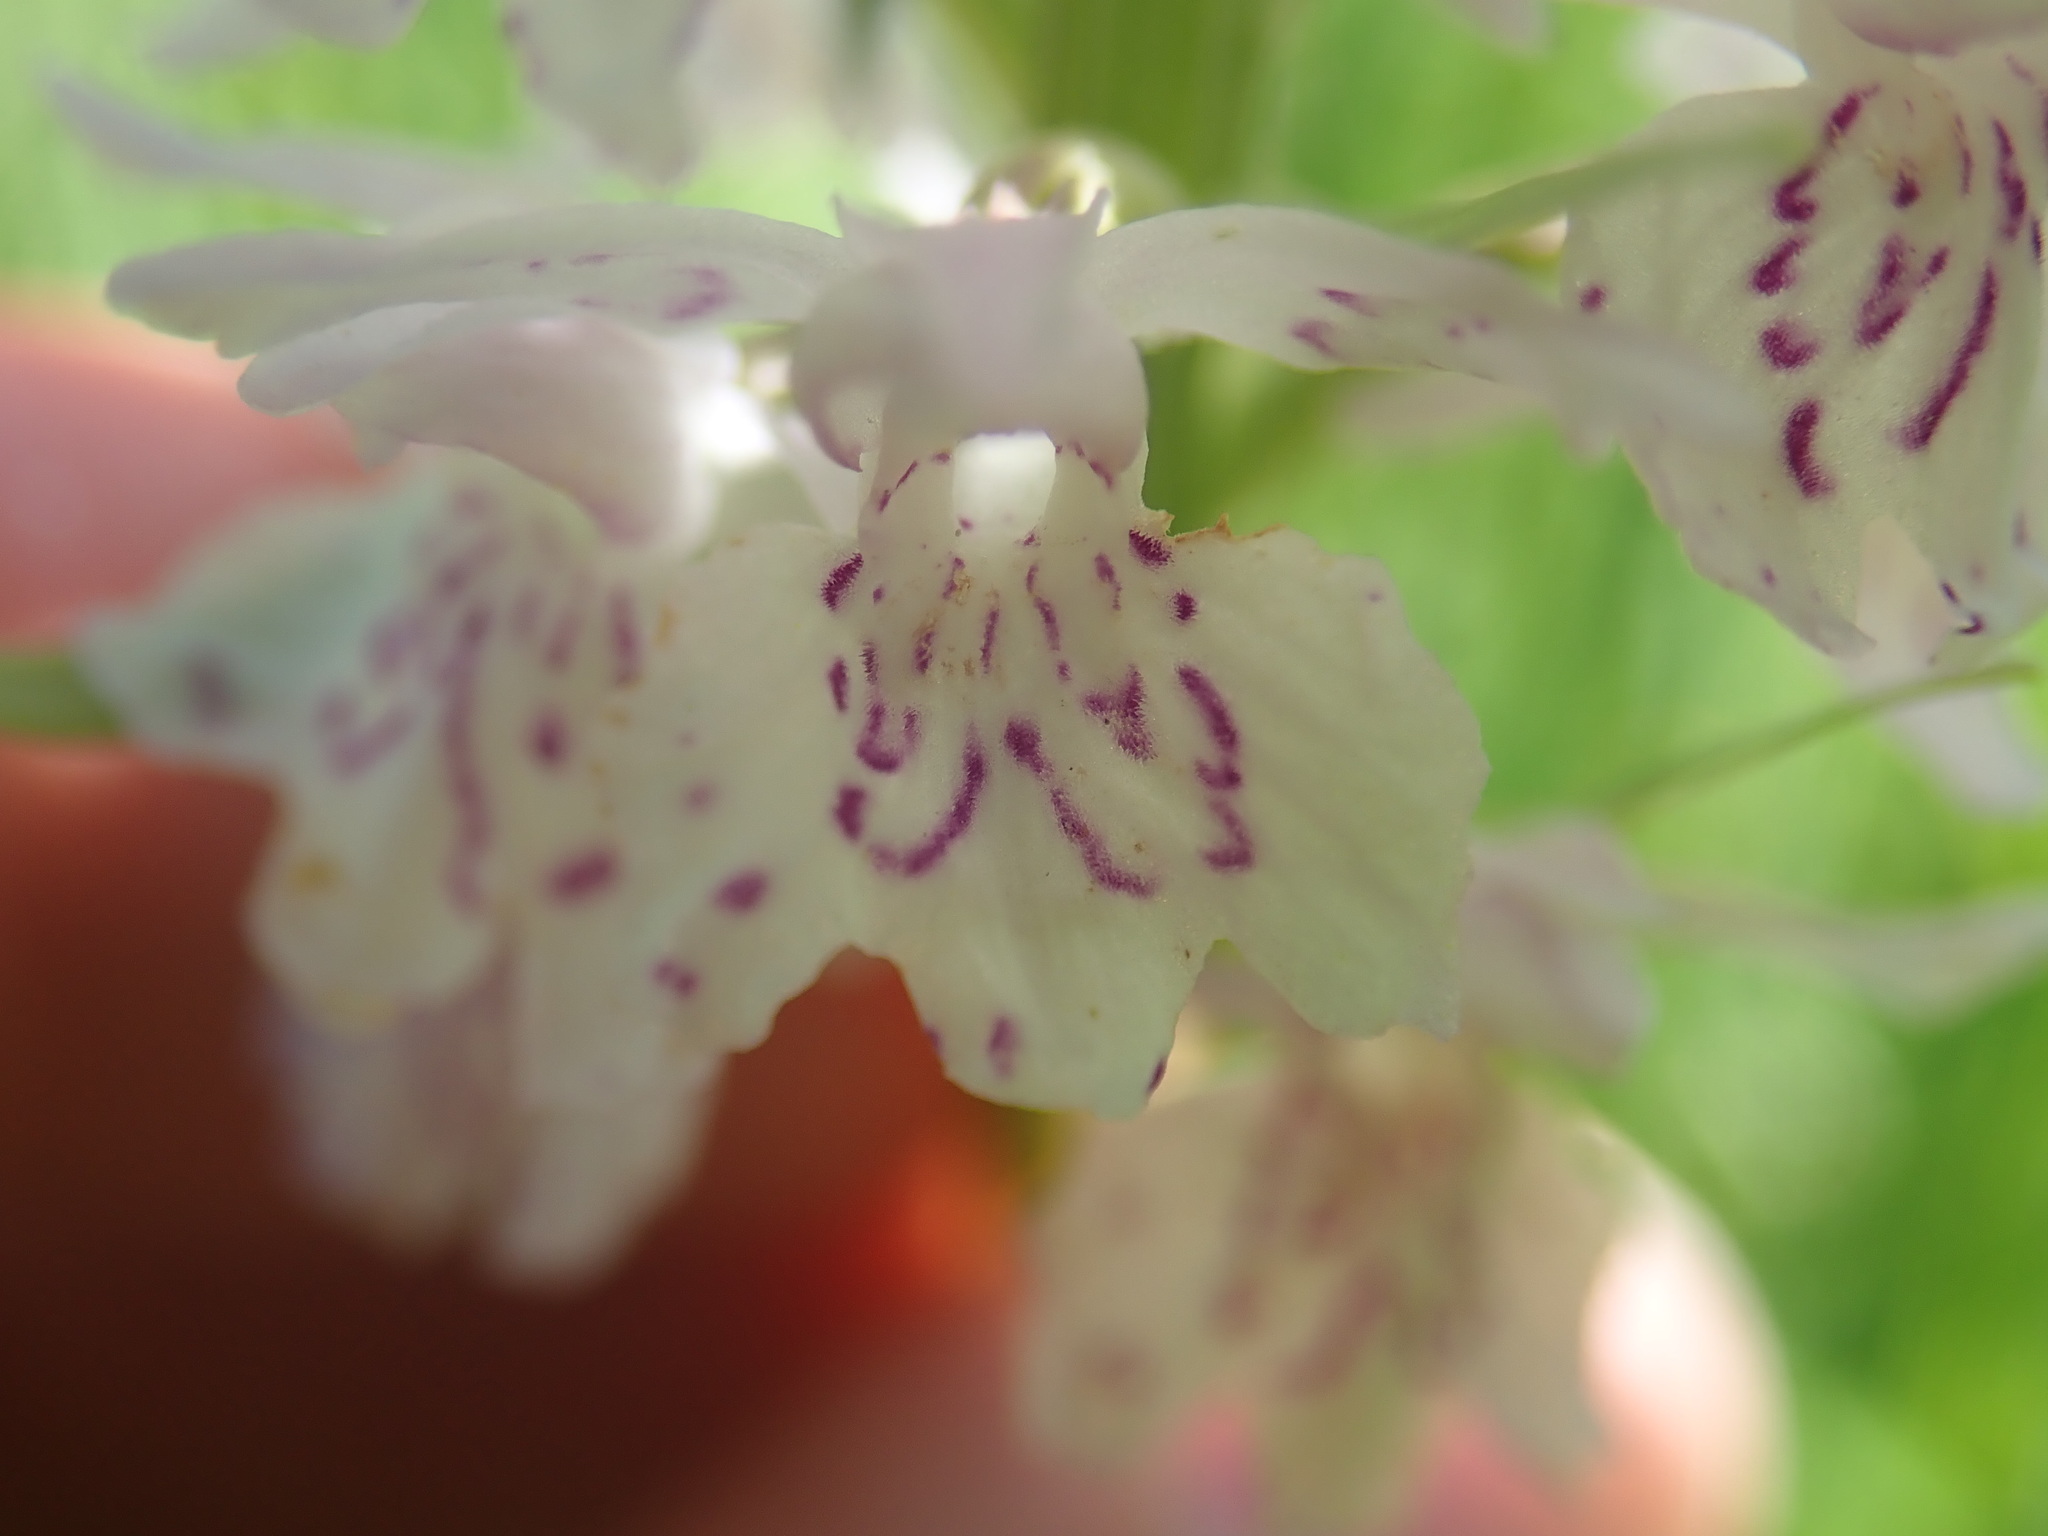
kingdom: Plantae
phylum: Tracheophyta
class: Liliopsida
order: Asparagales
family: Orchidaceae
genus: Dactylorhiza
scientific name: Dactylorhiza maculata
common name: Heath spotted-orchid
